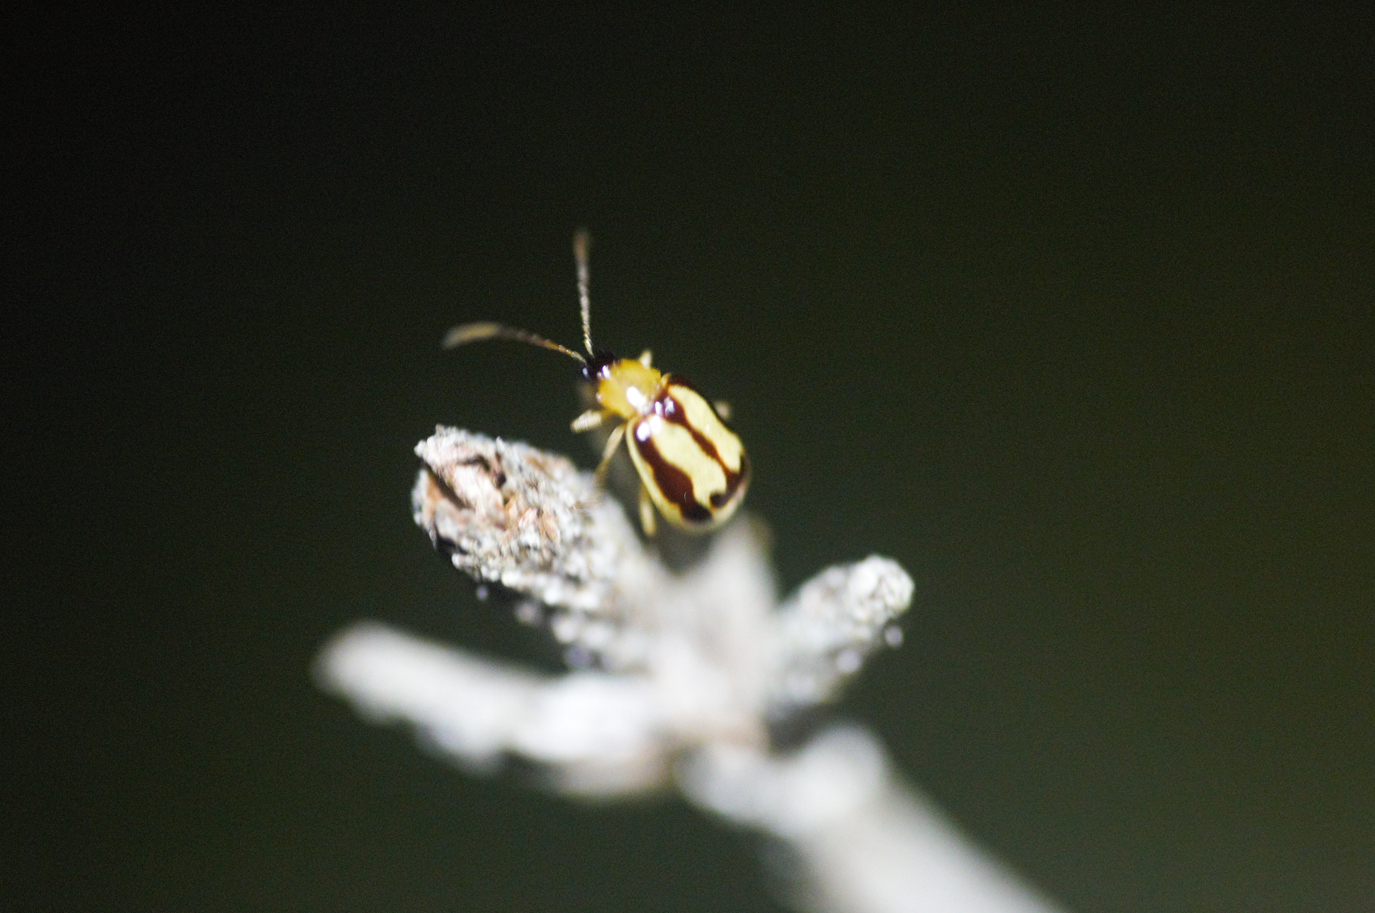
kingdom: Animalia
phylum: Arthropoda
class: Insecta
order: Coleoptera
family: Chrysomelidae
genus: Basiprionota
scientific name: Basiprionota sinuata
